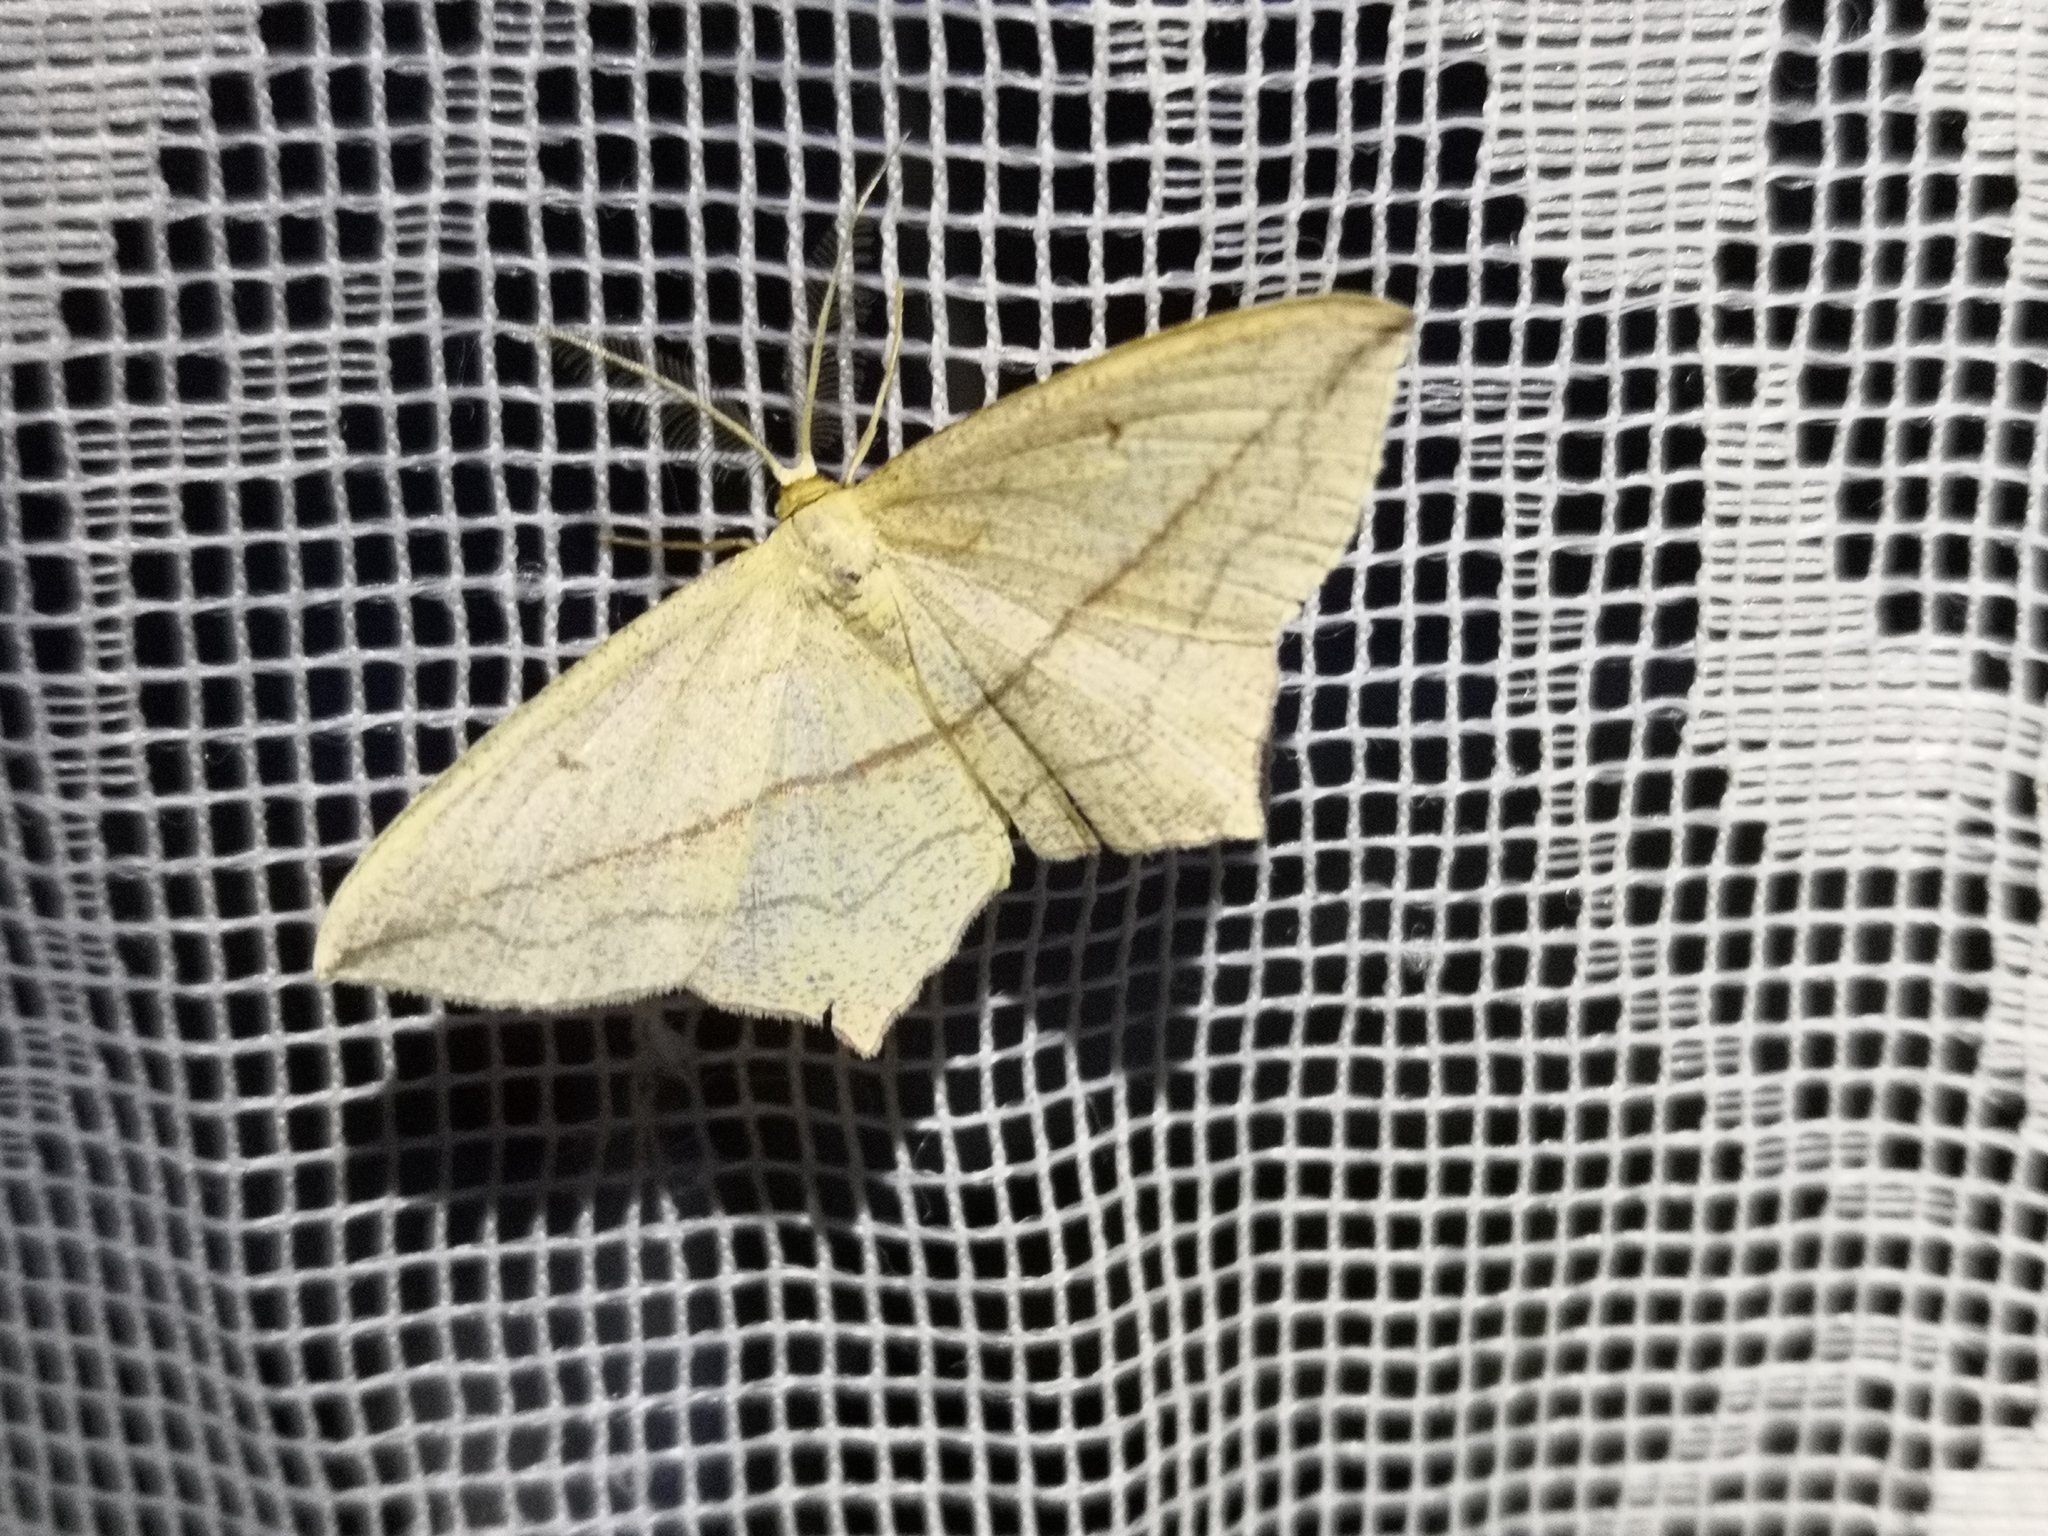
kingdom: Animalia
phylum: Arthropoda
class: Insecta
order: Lepidoptera
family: Geometridae
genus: Timandra
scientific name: Timandra comae
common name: Blood-vein
